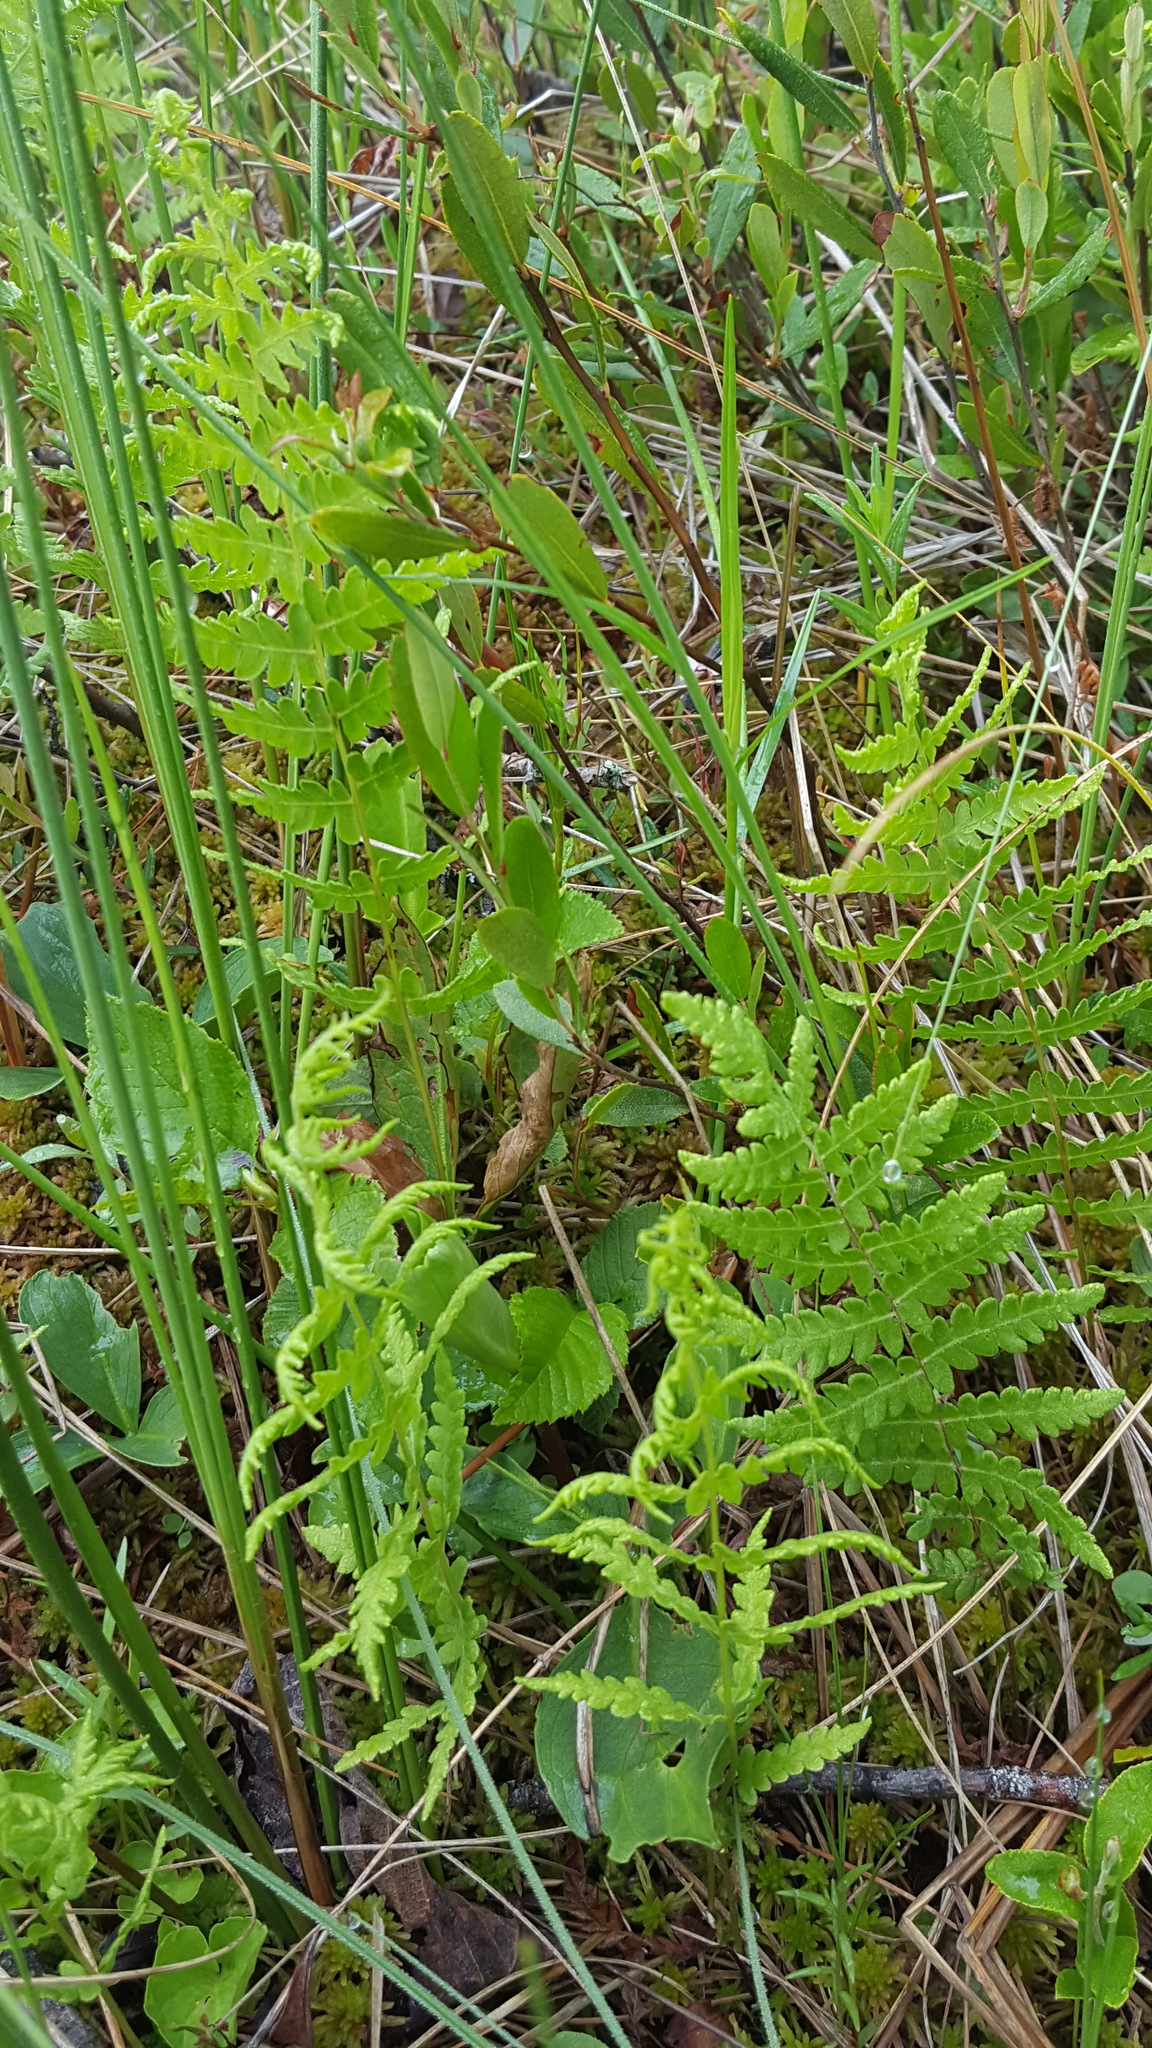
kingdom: Plantae
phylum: Tracheophyta
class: Polypodiopsida
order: Polypodiales
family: Thelypteridaceae
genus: Thelypteris
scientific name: Thelypteris palustris
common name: Marsh fern
